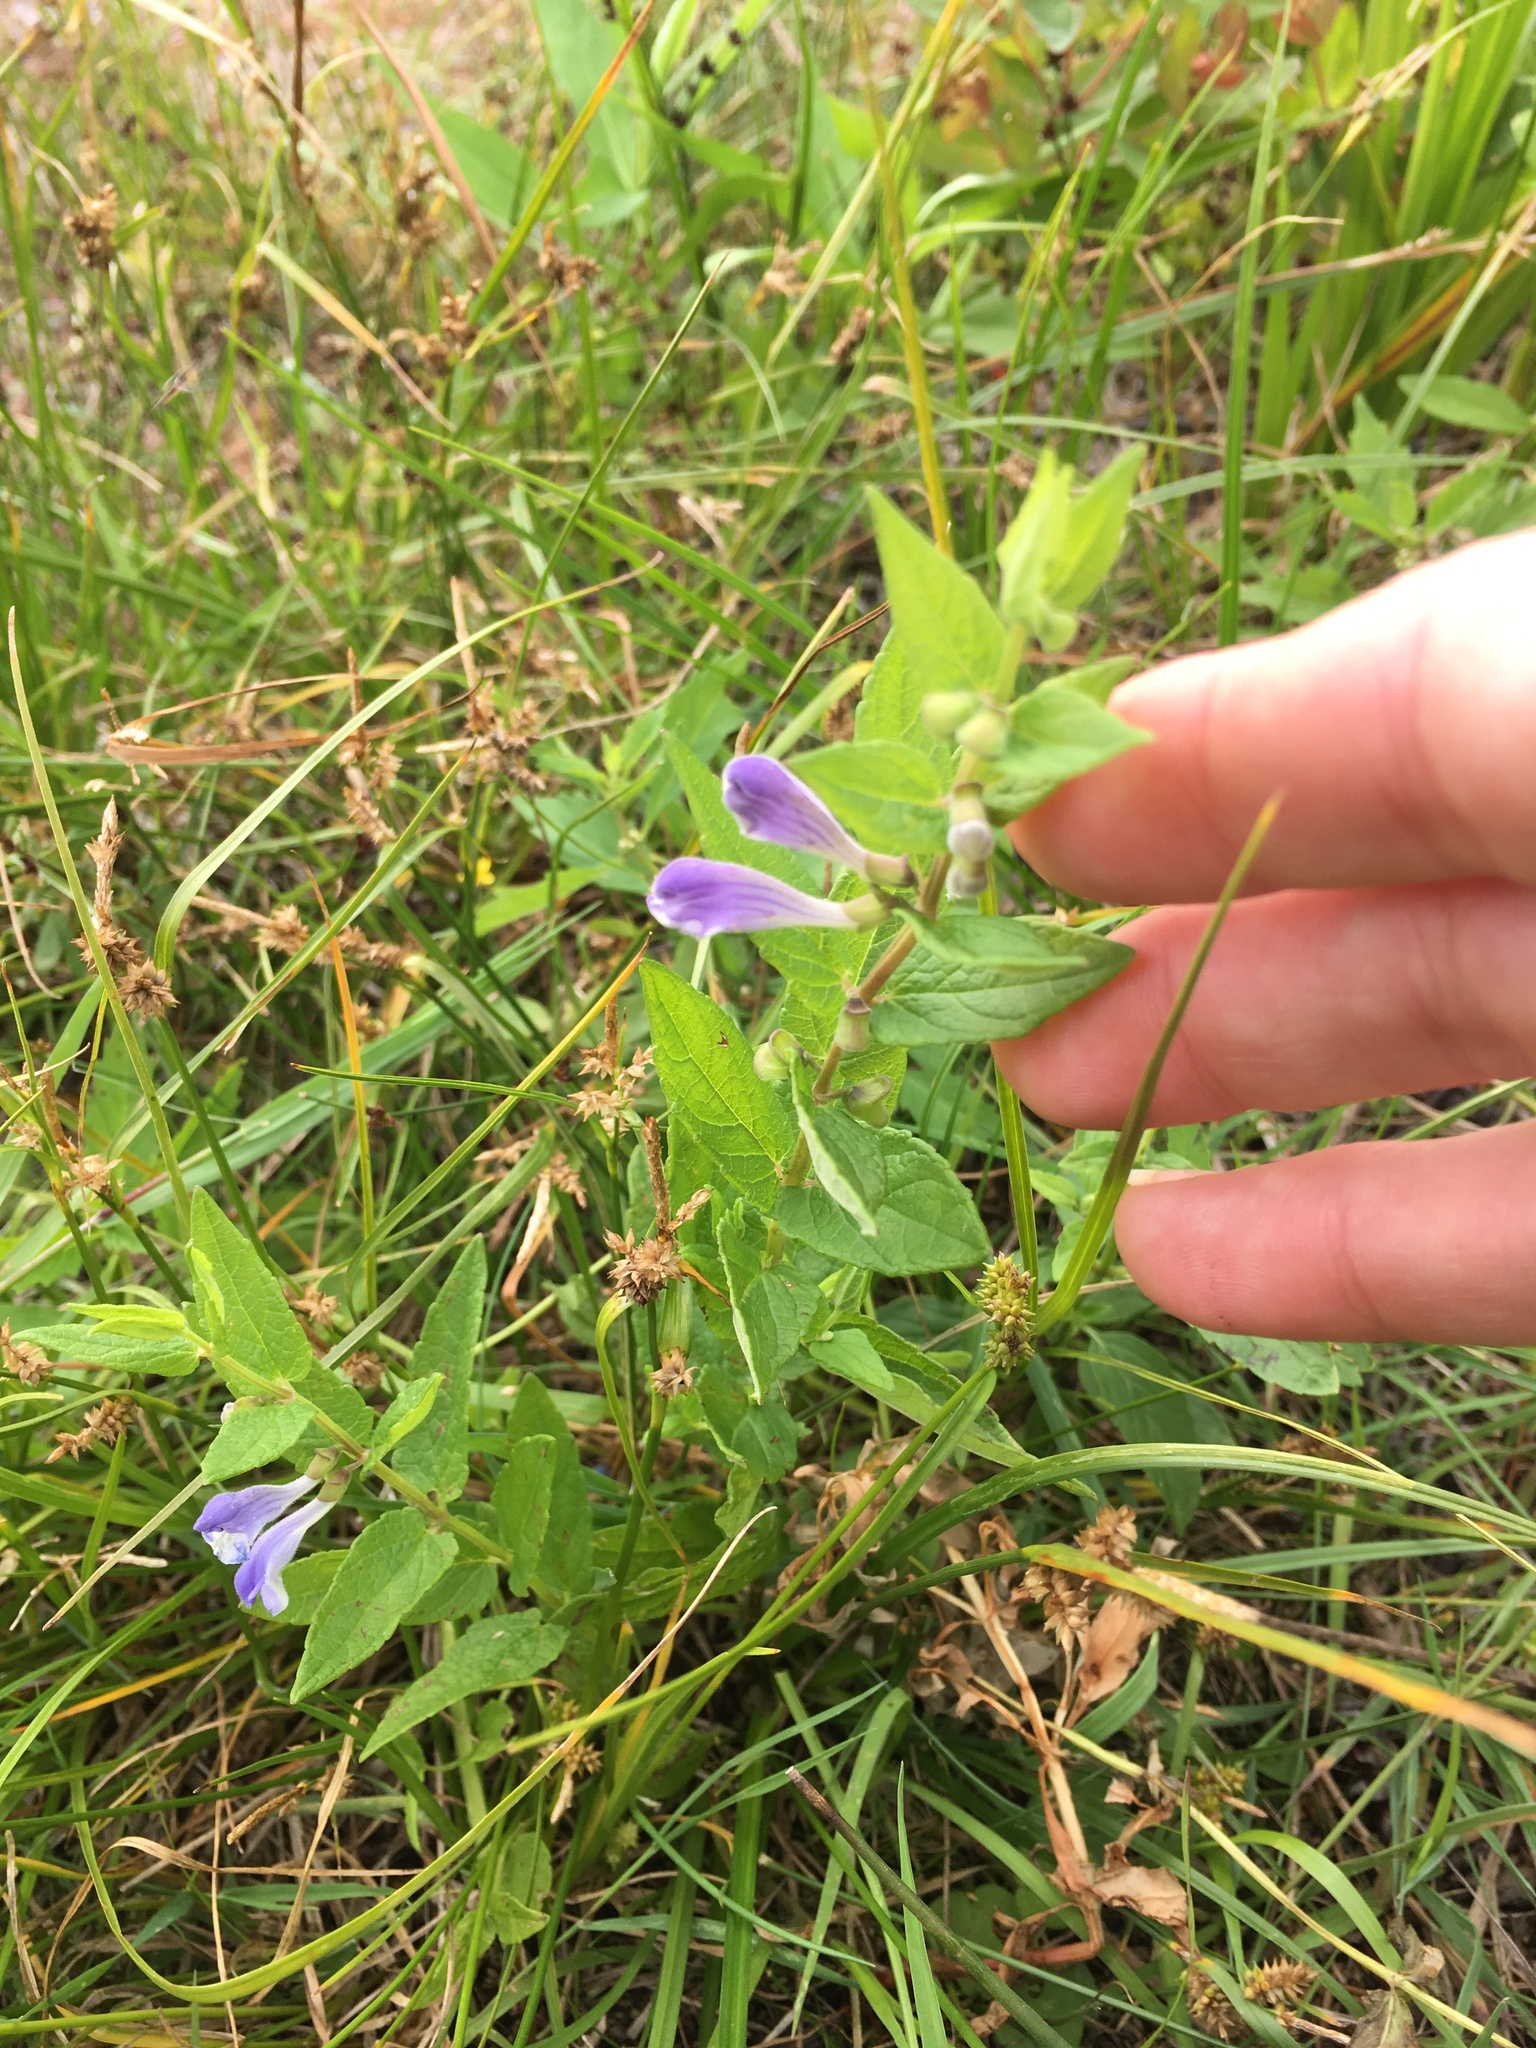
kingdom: Plantae
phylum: Tracheophyta
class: Magnoliopsida
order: Lamiales
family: Lamiaceae
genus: Scutellaria
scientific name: Scutellaria galericulata
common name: Skullcap
